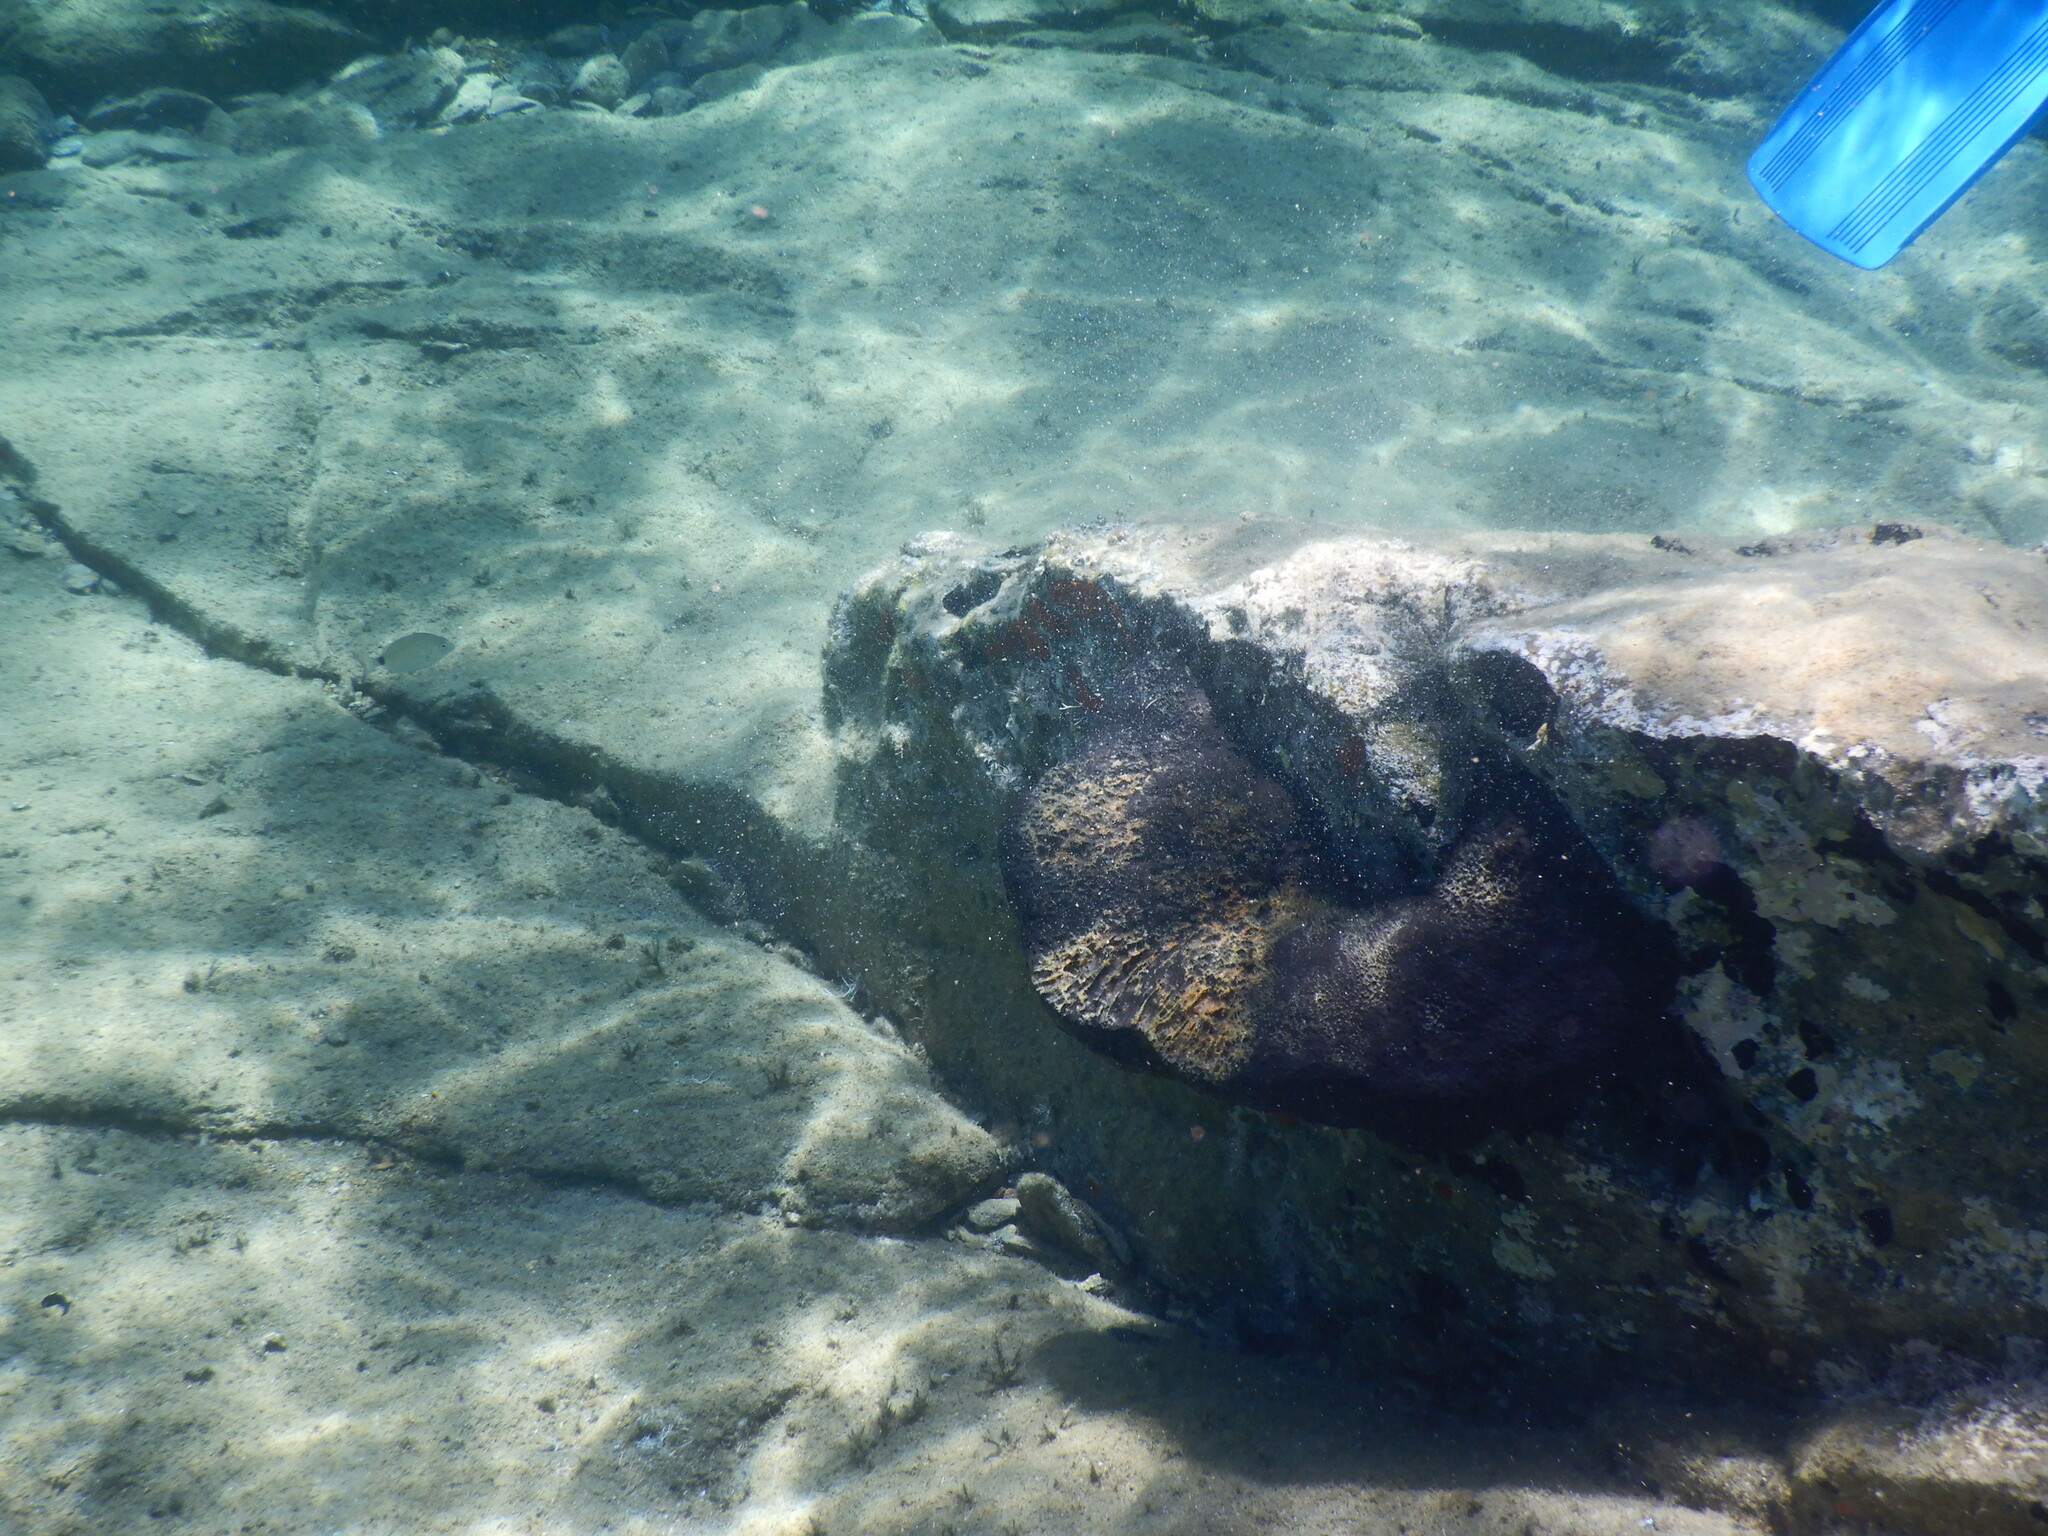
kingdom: Animalia
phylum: Porifera
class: Demospongiae
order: Dictyoceratida
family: Irciniidae
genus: Sarcotragus
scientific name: Sarcotragus spinosulus
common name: Black leather sponge
